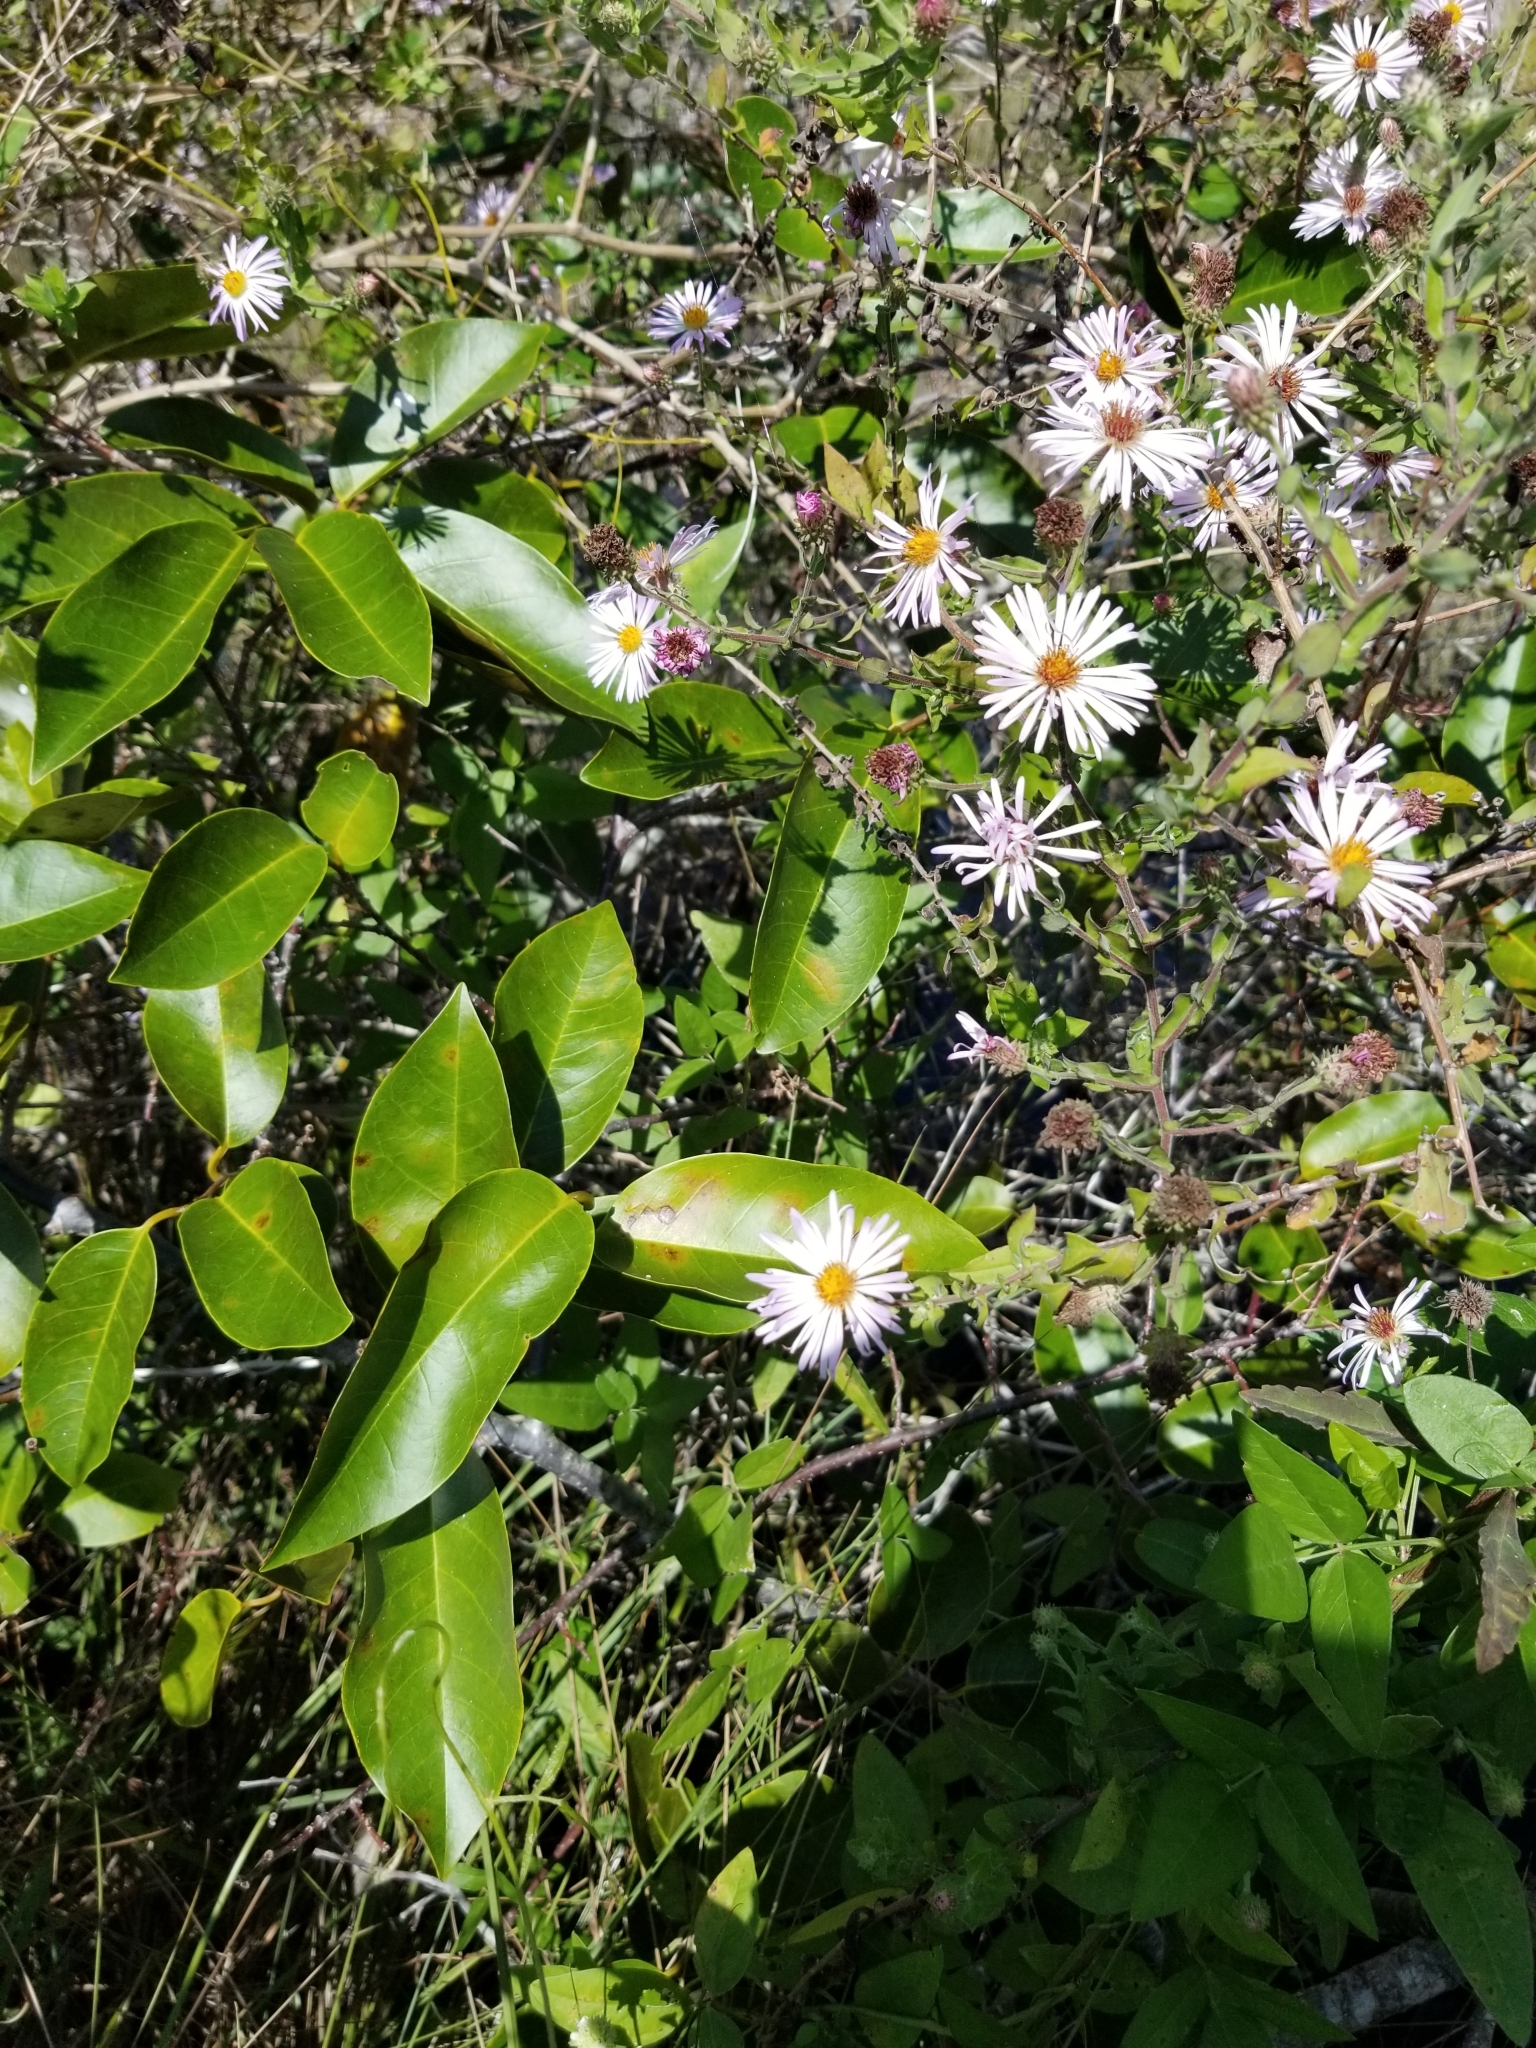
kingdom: Plantae
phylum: Tracheophyta
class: Magnoliopsida
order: Asterales
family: Asteraceae
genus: Ampelaster
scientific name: Ampelaster carolinianus
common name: Climbing aster
